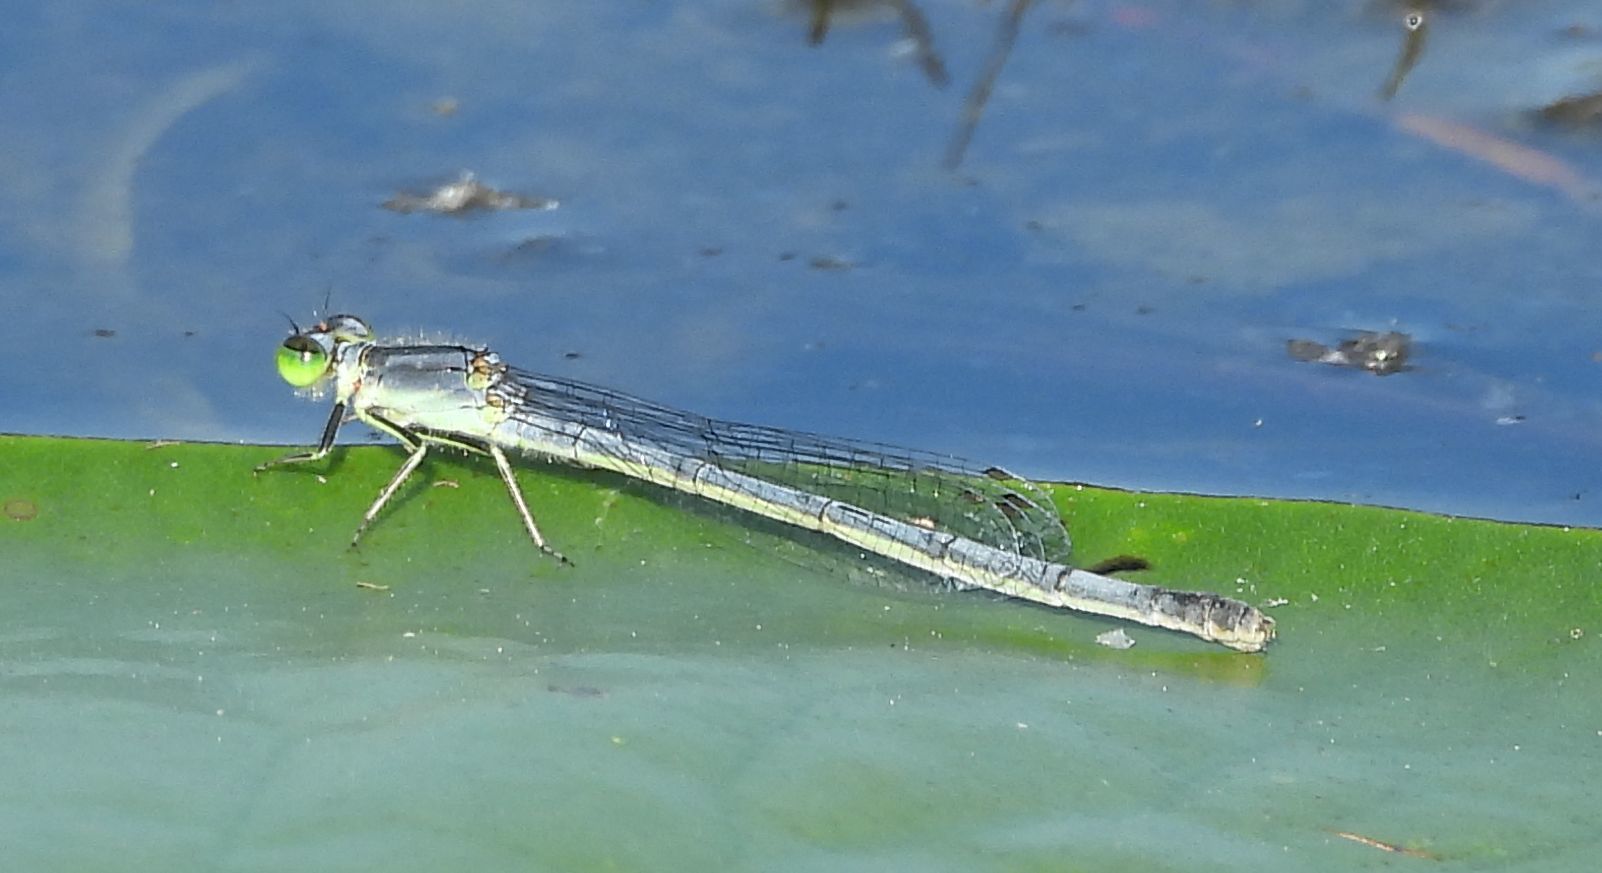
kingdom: Animalia
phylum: Arthropoda
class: Insecta
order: Odonata
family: Coenagrionidae
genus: Ischnura
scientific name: Ischnura verticalis
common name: Eastern forktail
